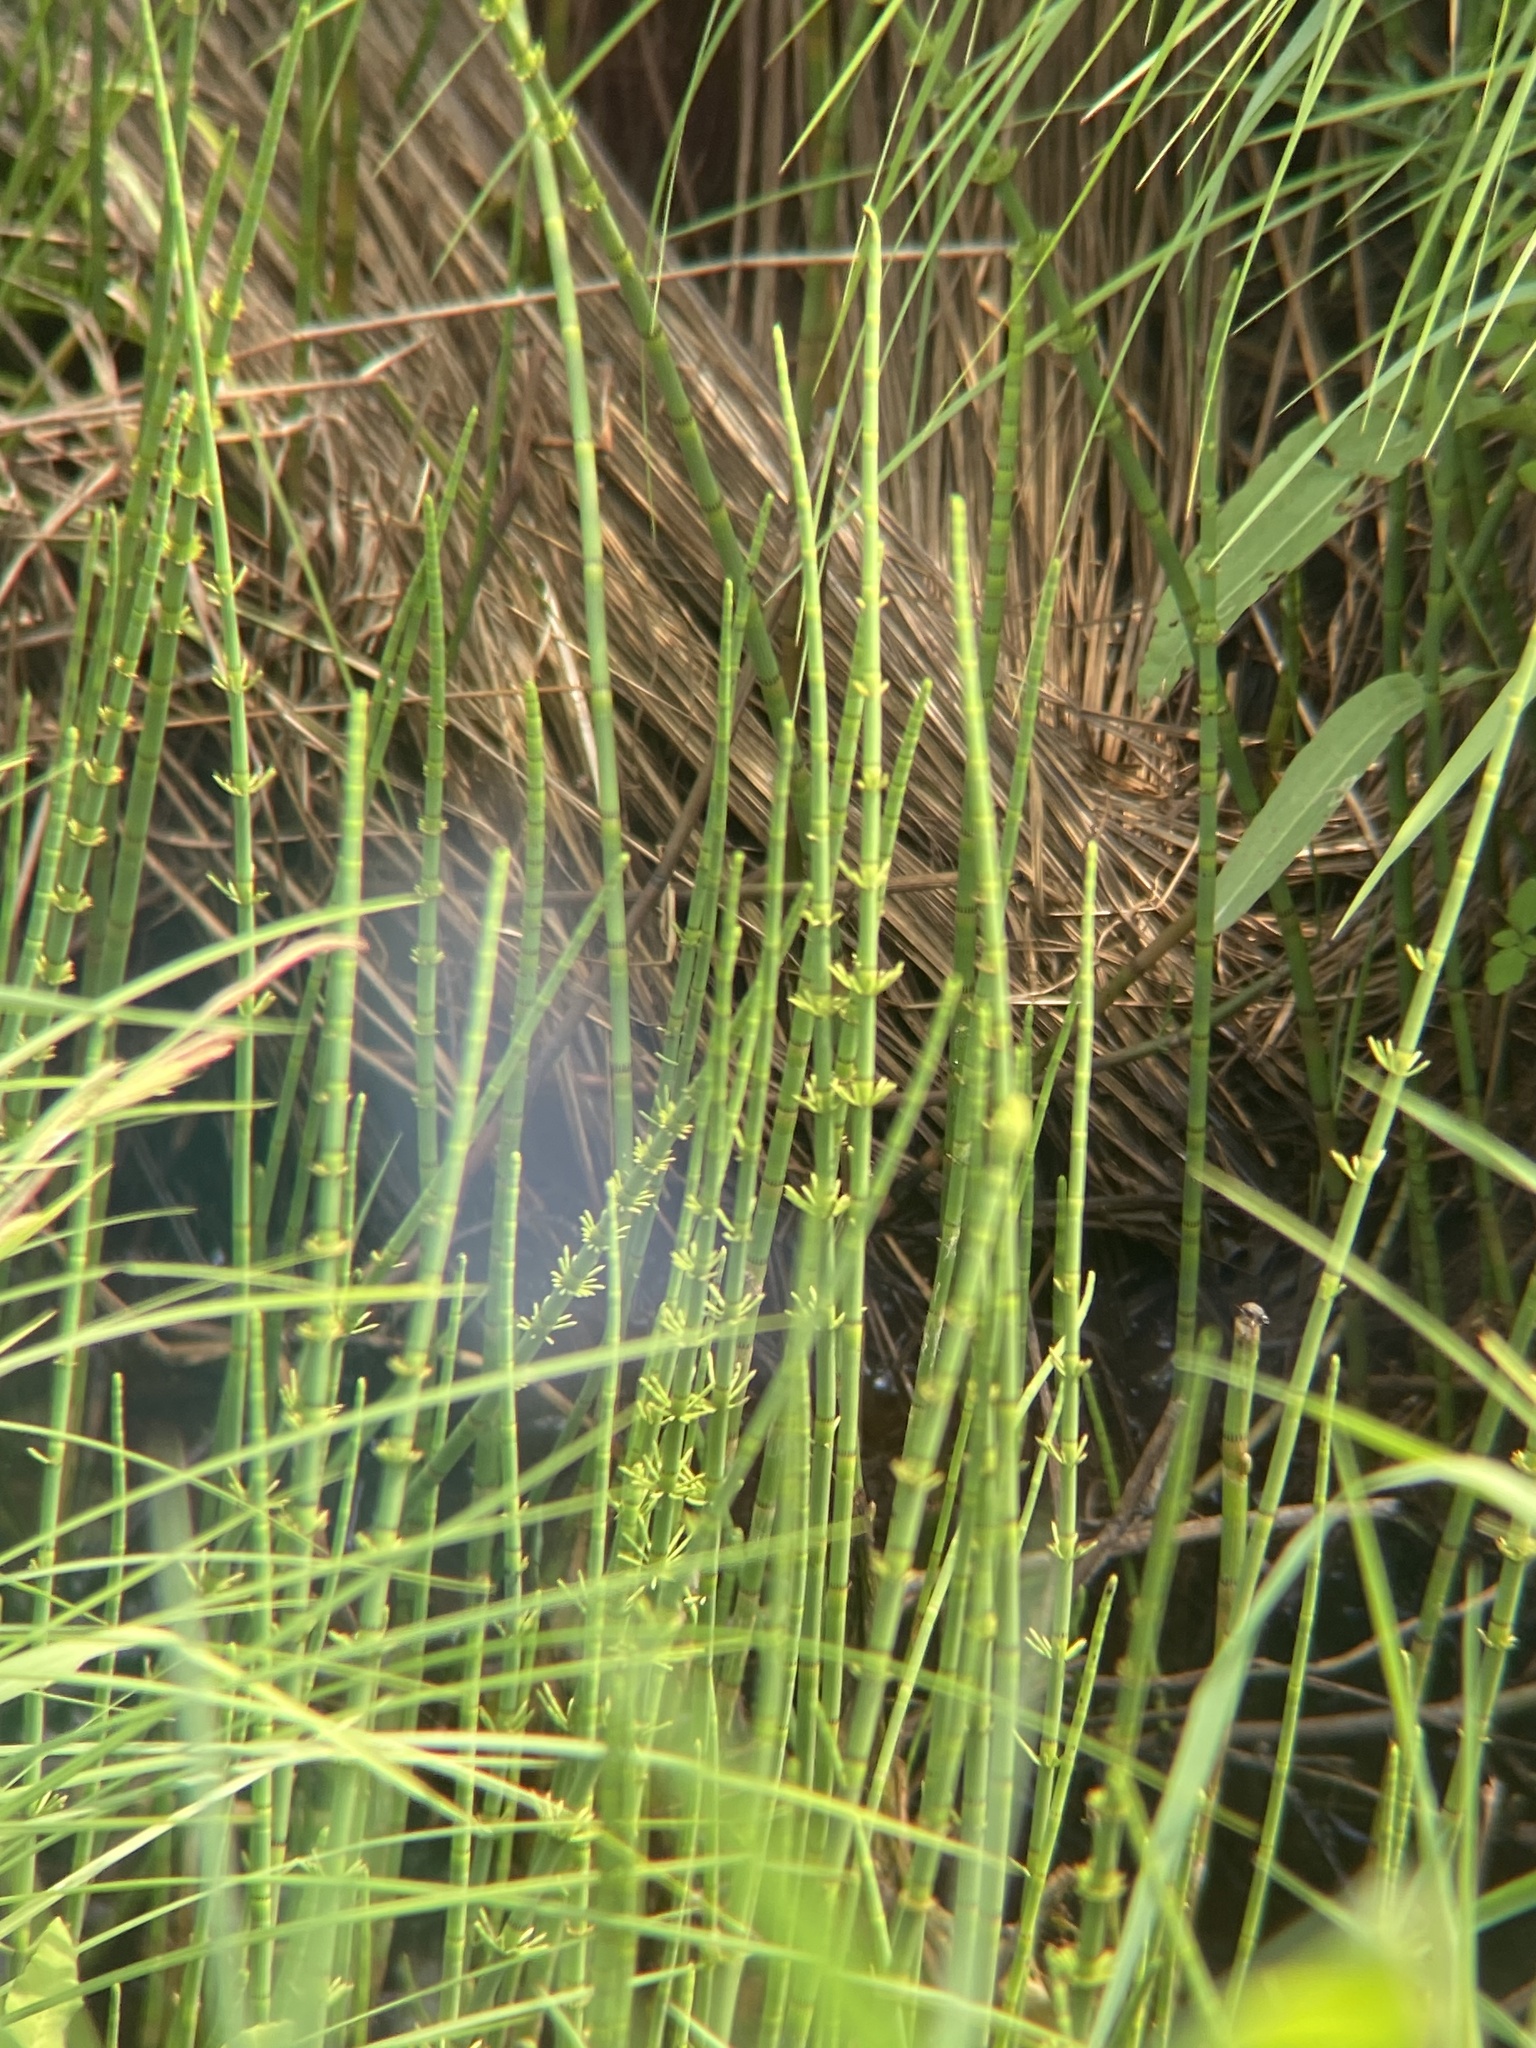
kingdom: Plantae
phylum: Tracheophyta
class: Polypodiopsida
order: Equisetales
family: Equisetaceae
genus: Equisetum
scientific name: Equisetum fluviatile
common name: Water horsetail
